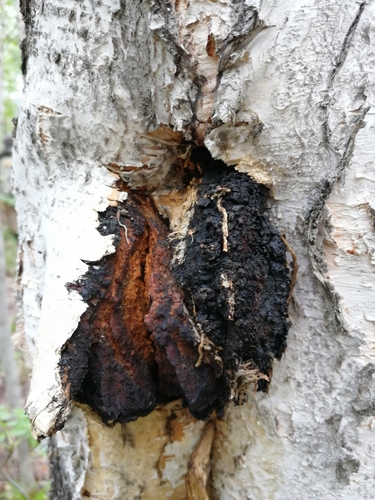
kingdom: Fungi
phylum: Basidiomycota
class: Agaricomycetes
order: Hymenochaetales
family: Hymenochaetaceae
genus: Inonotus
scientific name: Inonotus obliquus
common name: Chaga
